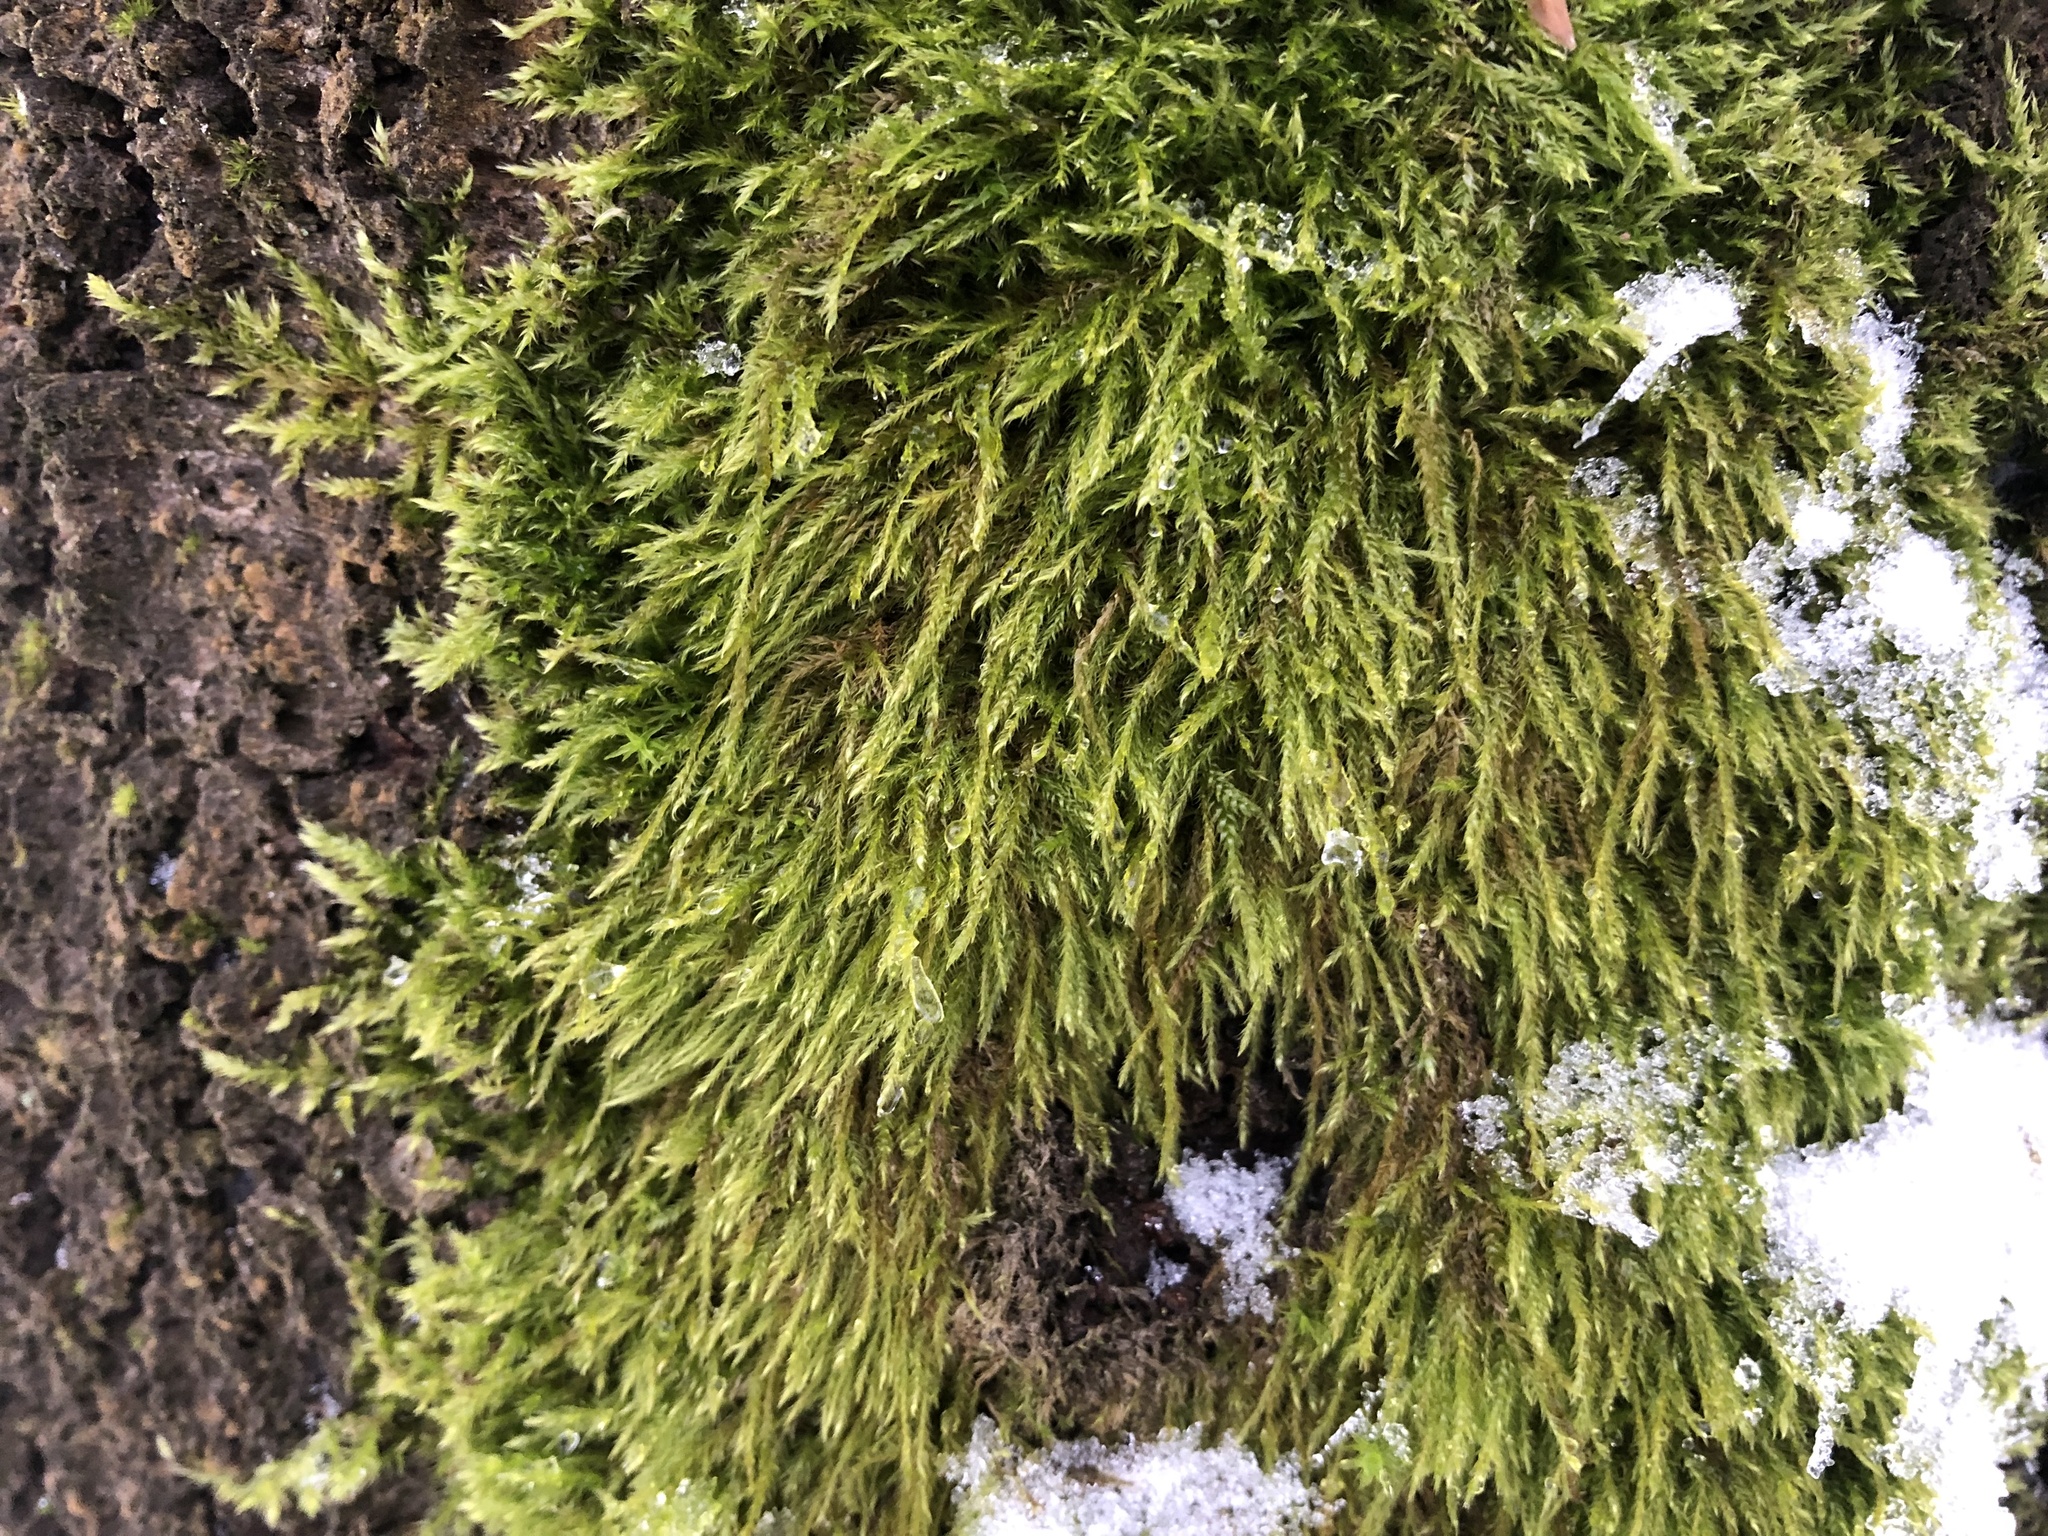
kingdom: Plantae
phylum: Bryophyta
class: Bryopsida
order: Hypnales
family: Hypnaceae
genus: Hypnum
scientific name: Hypnum cupressiforme
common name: Cypress-leaved plait-moss
